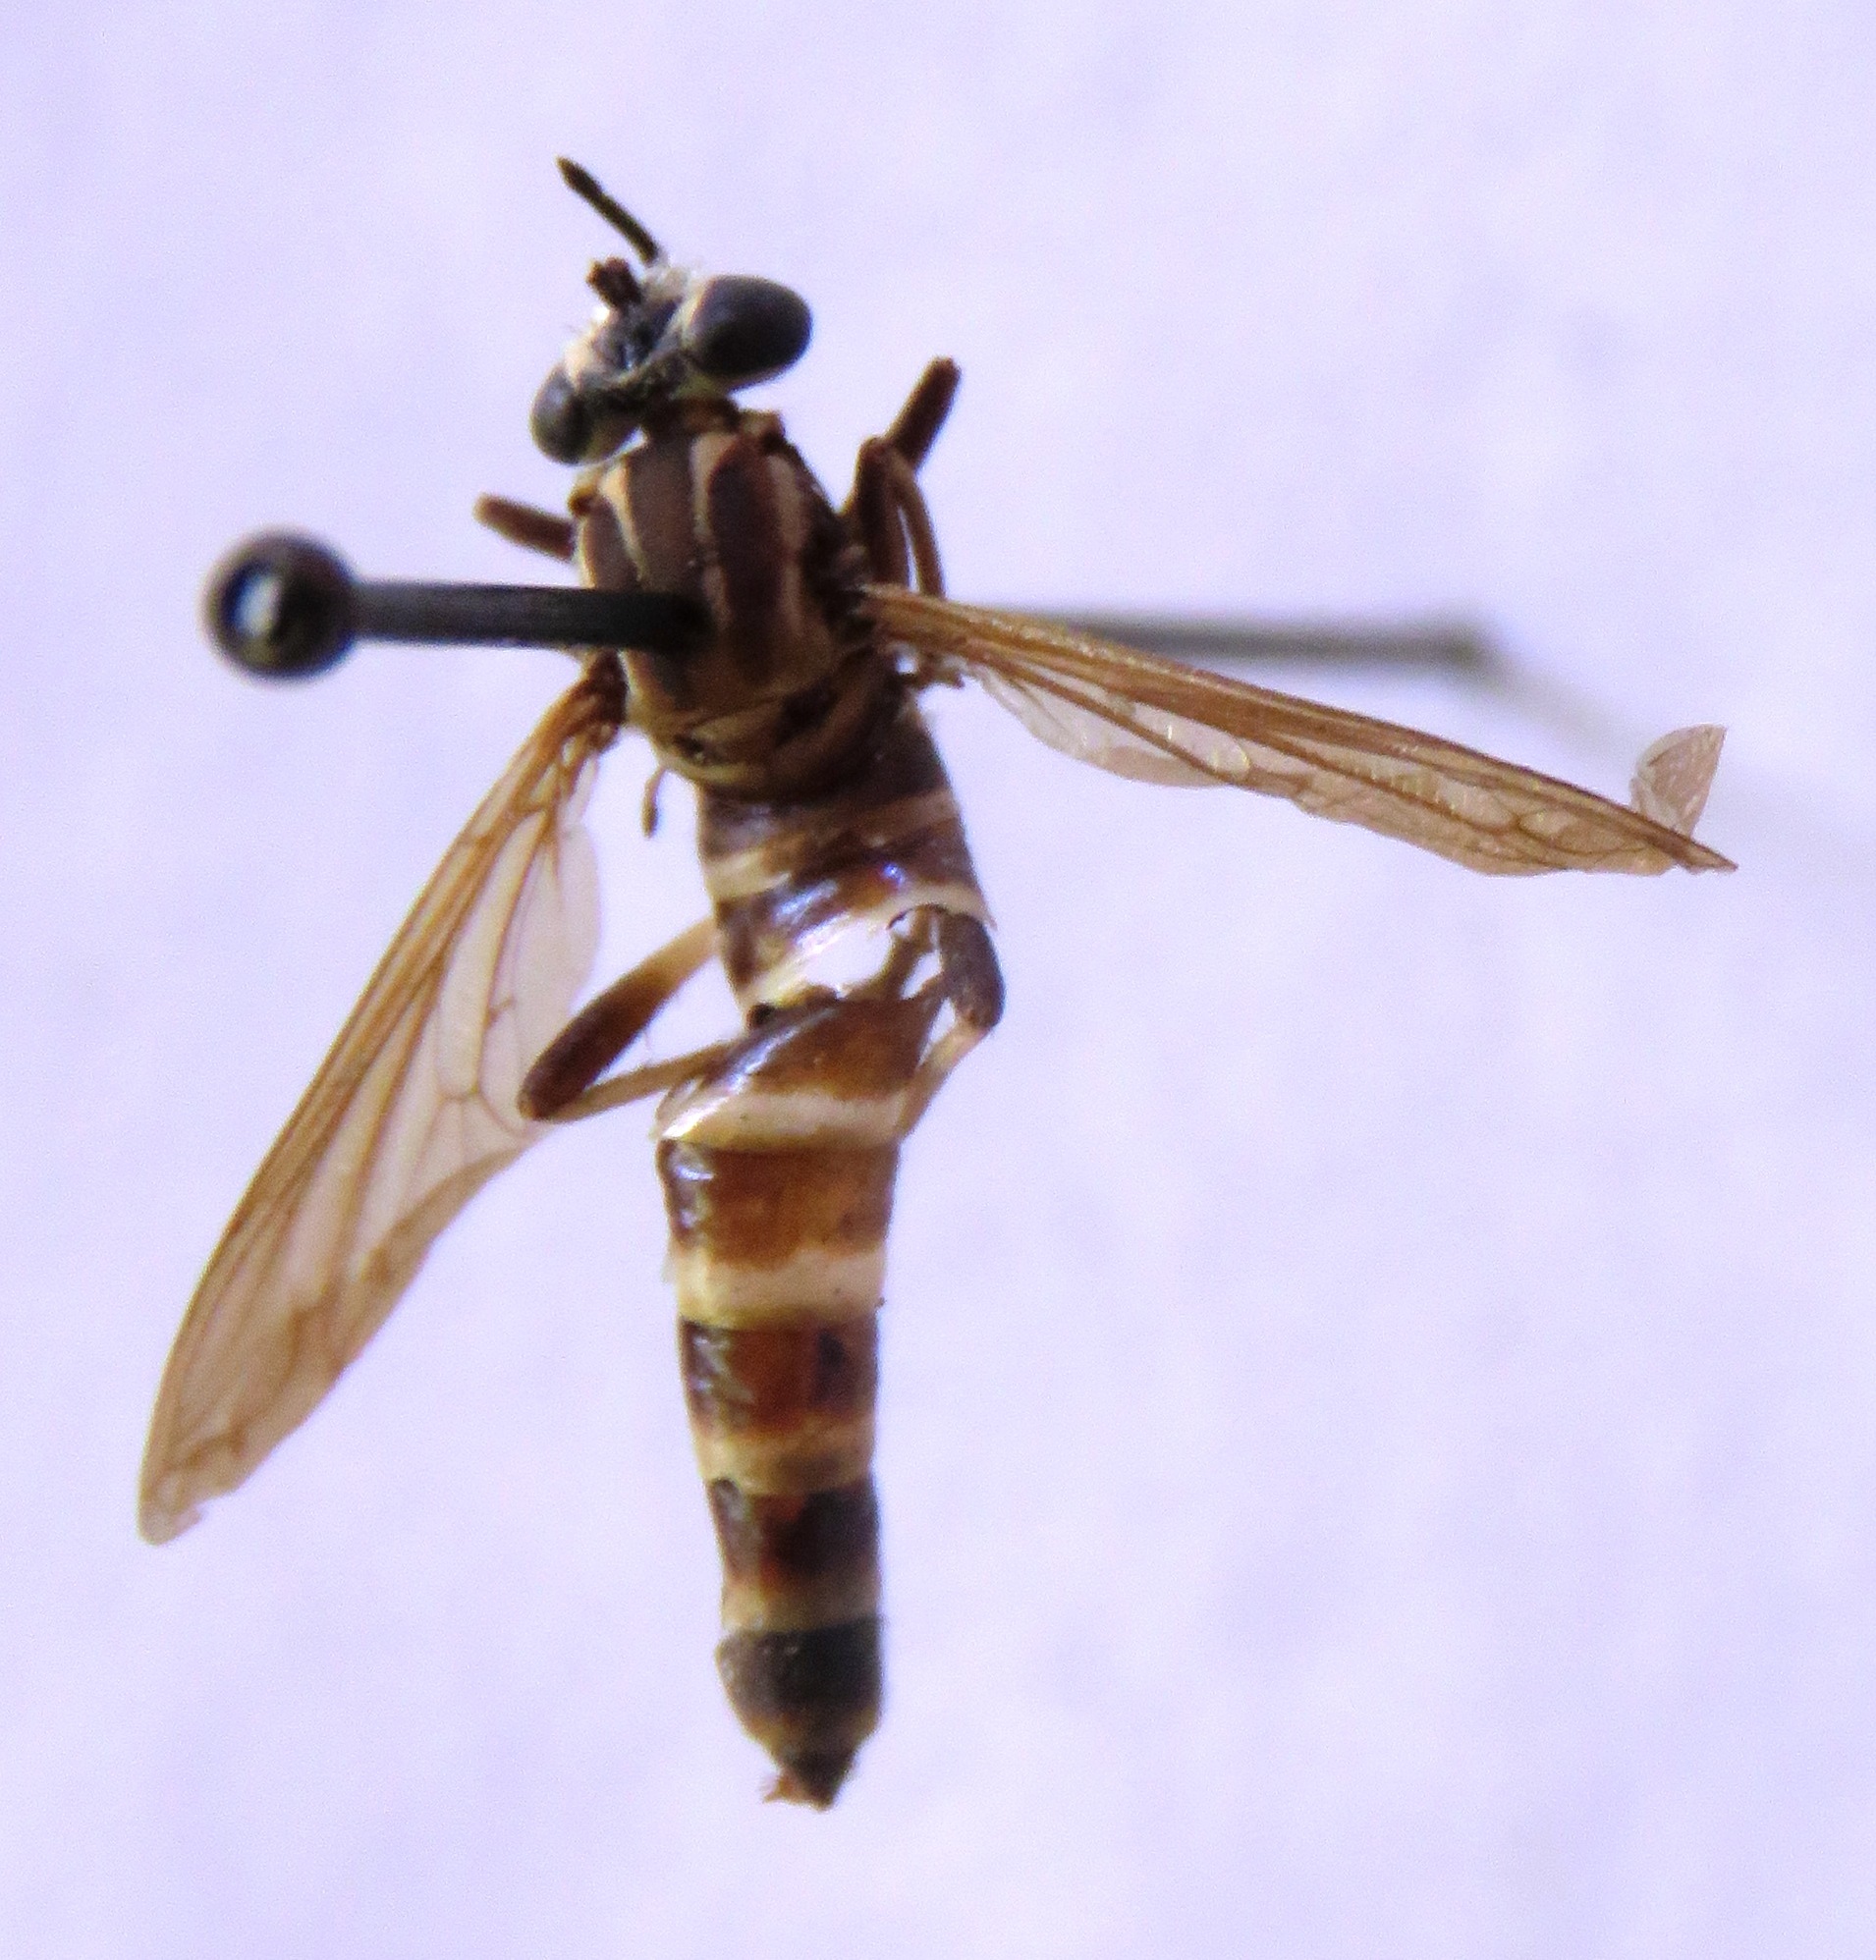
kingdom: Animalia
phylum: Arthropoda
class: Insecta
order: Diptera
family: Mydidae
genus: Nemomydas
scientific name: Nemomydas lamia
